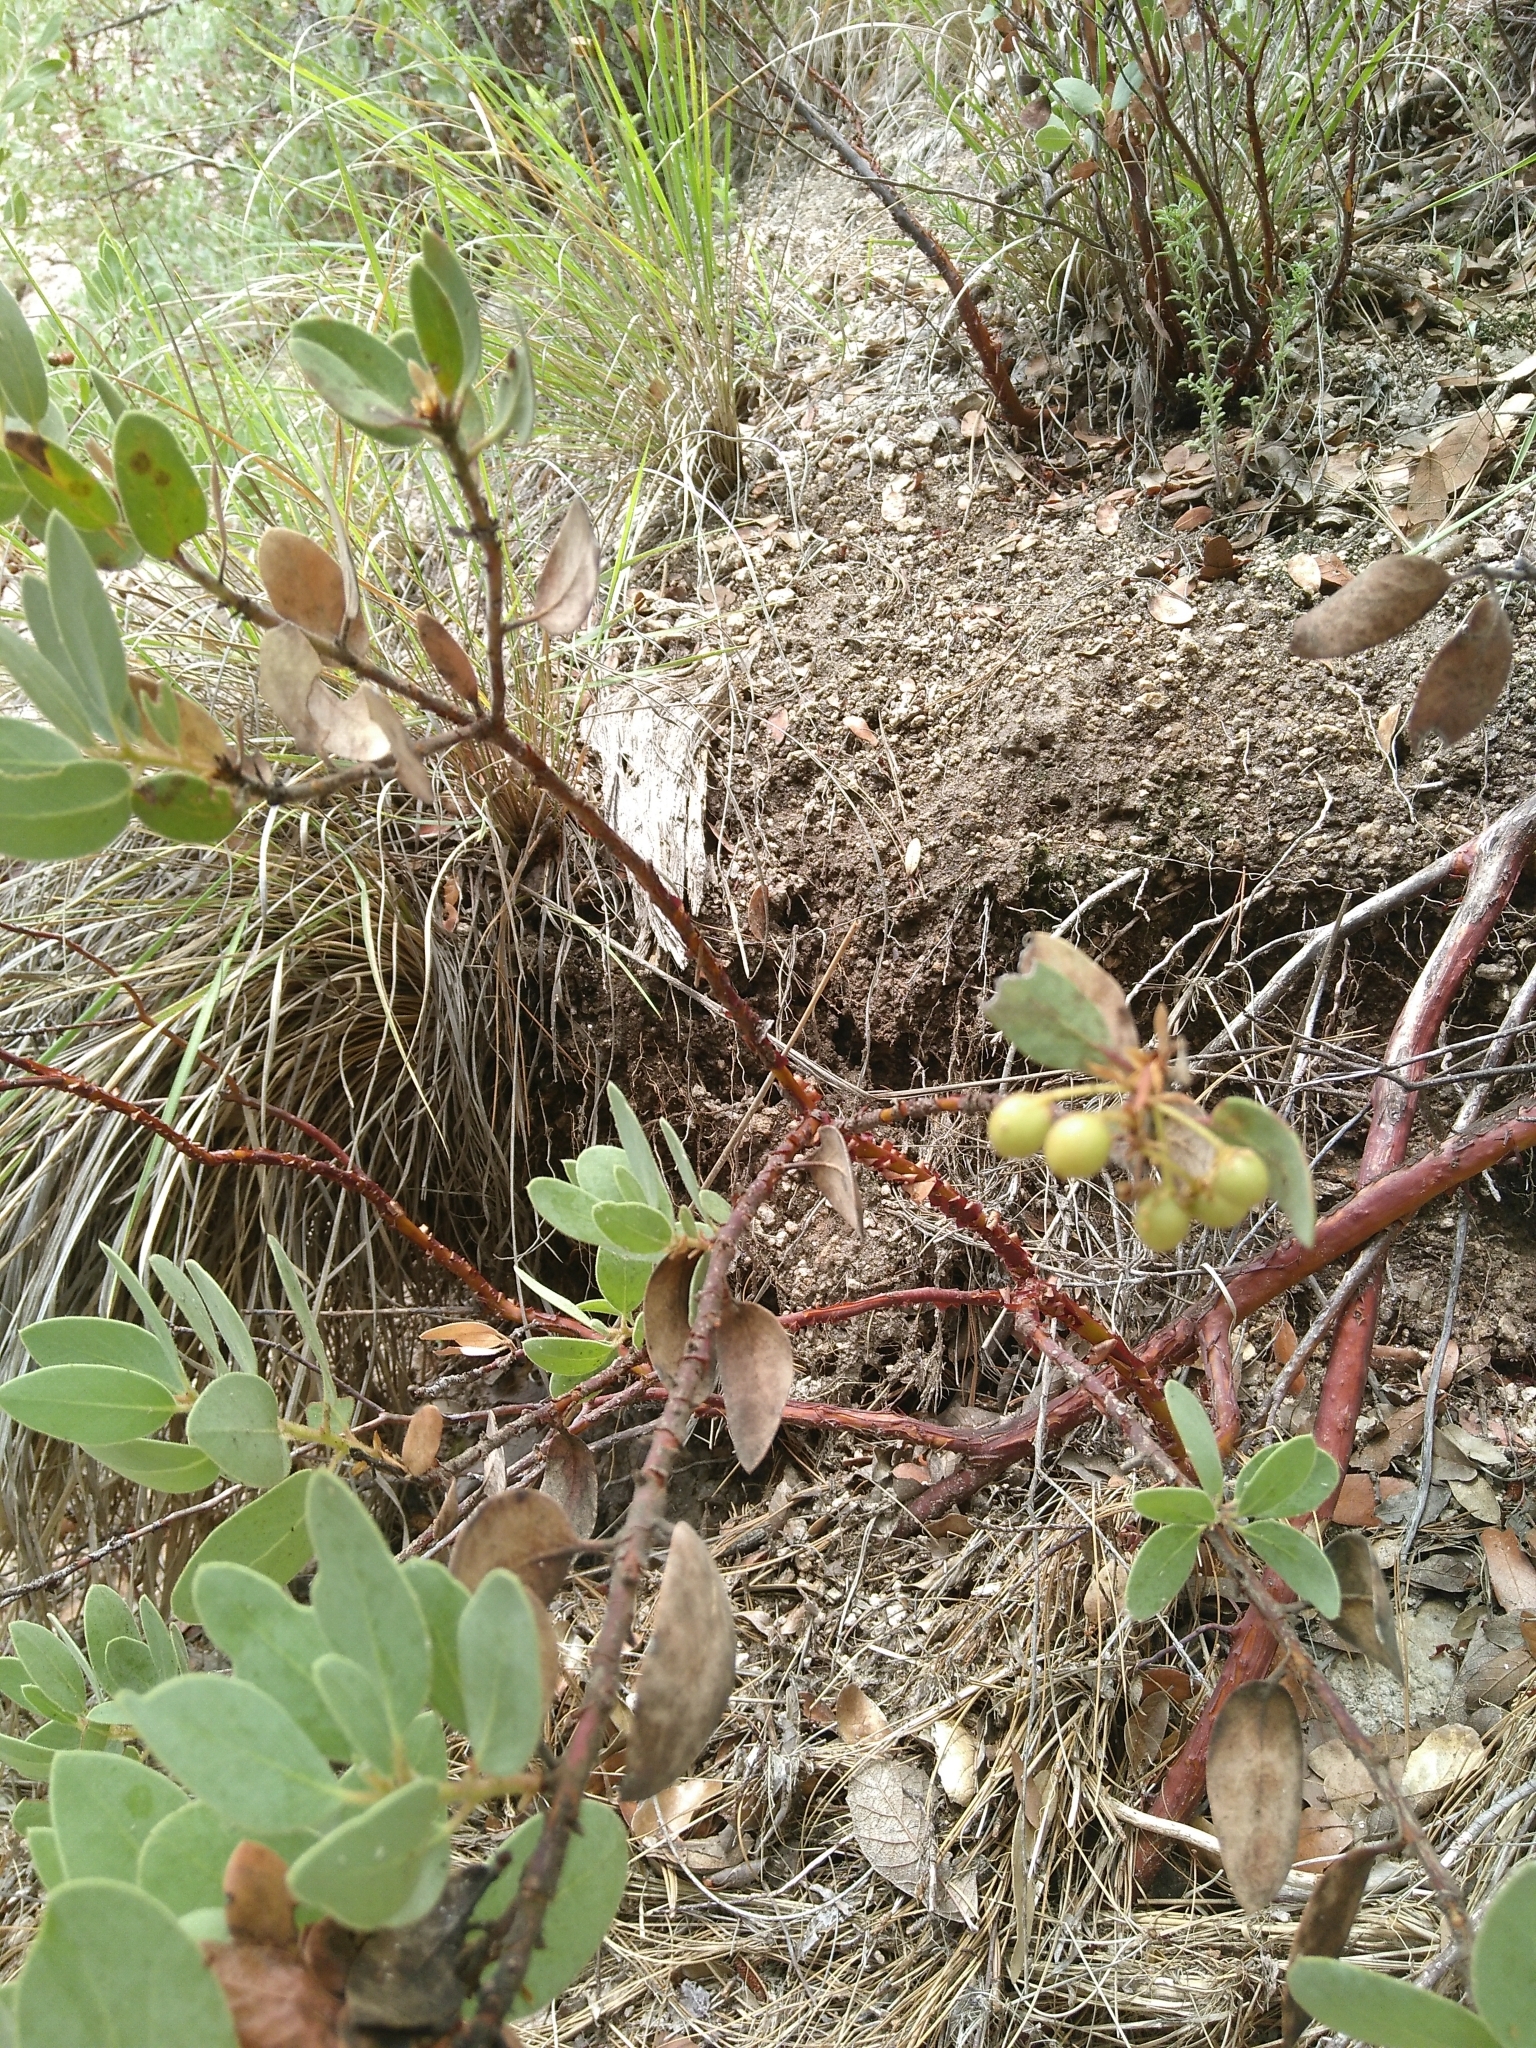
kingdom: Plantae
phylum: Tracheophyta
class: Magnoliopsida
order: Ericales
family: Ericaceae
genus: Arctostaphylos
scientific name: Arctostaphylos pringlei
